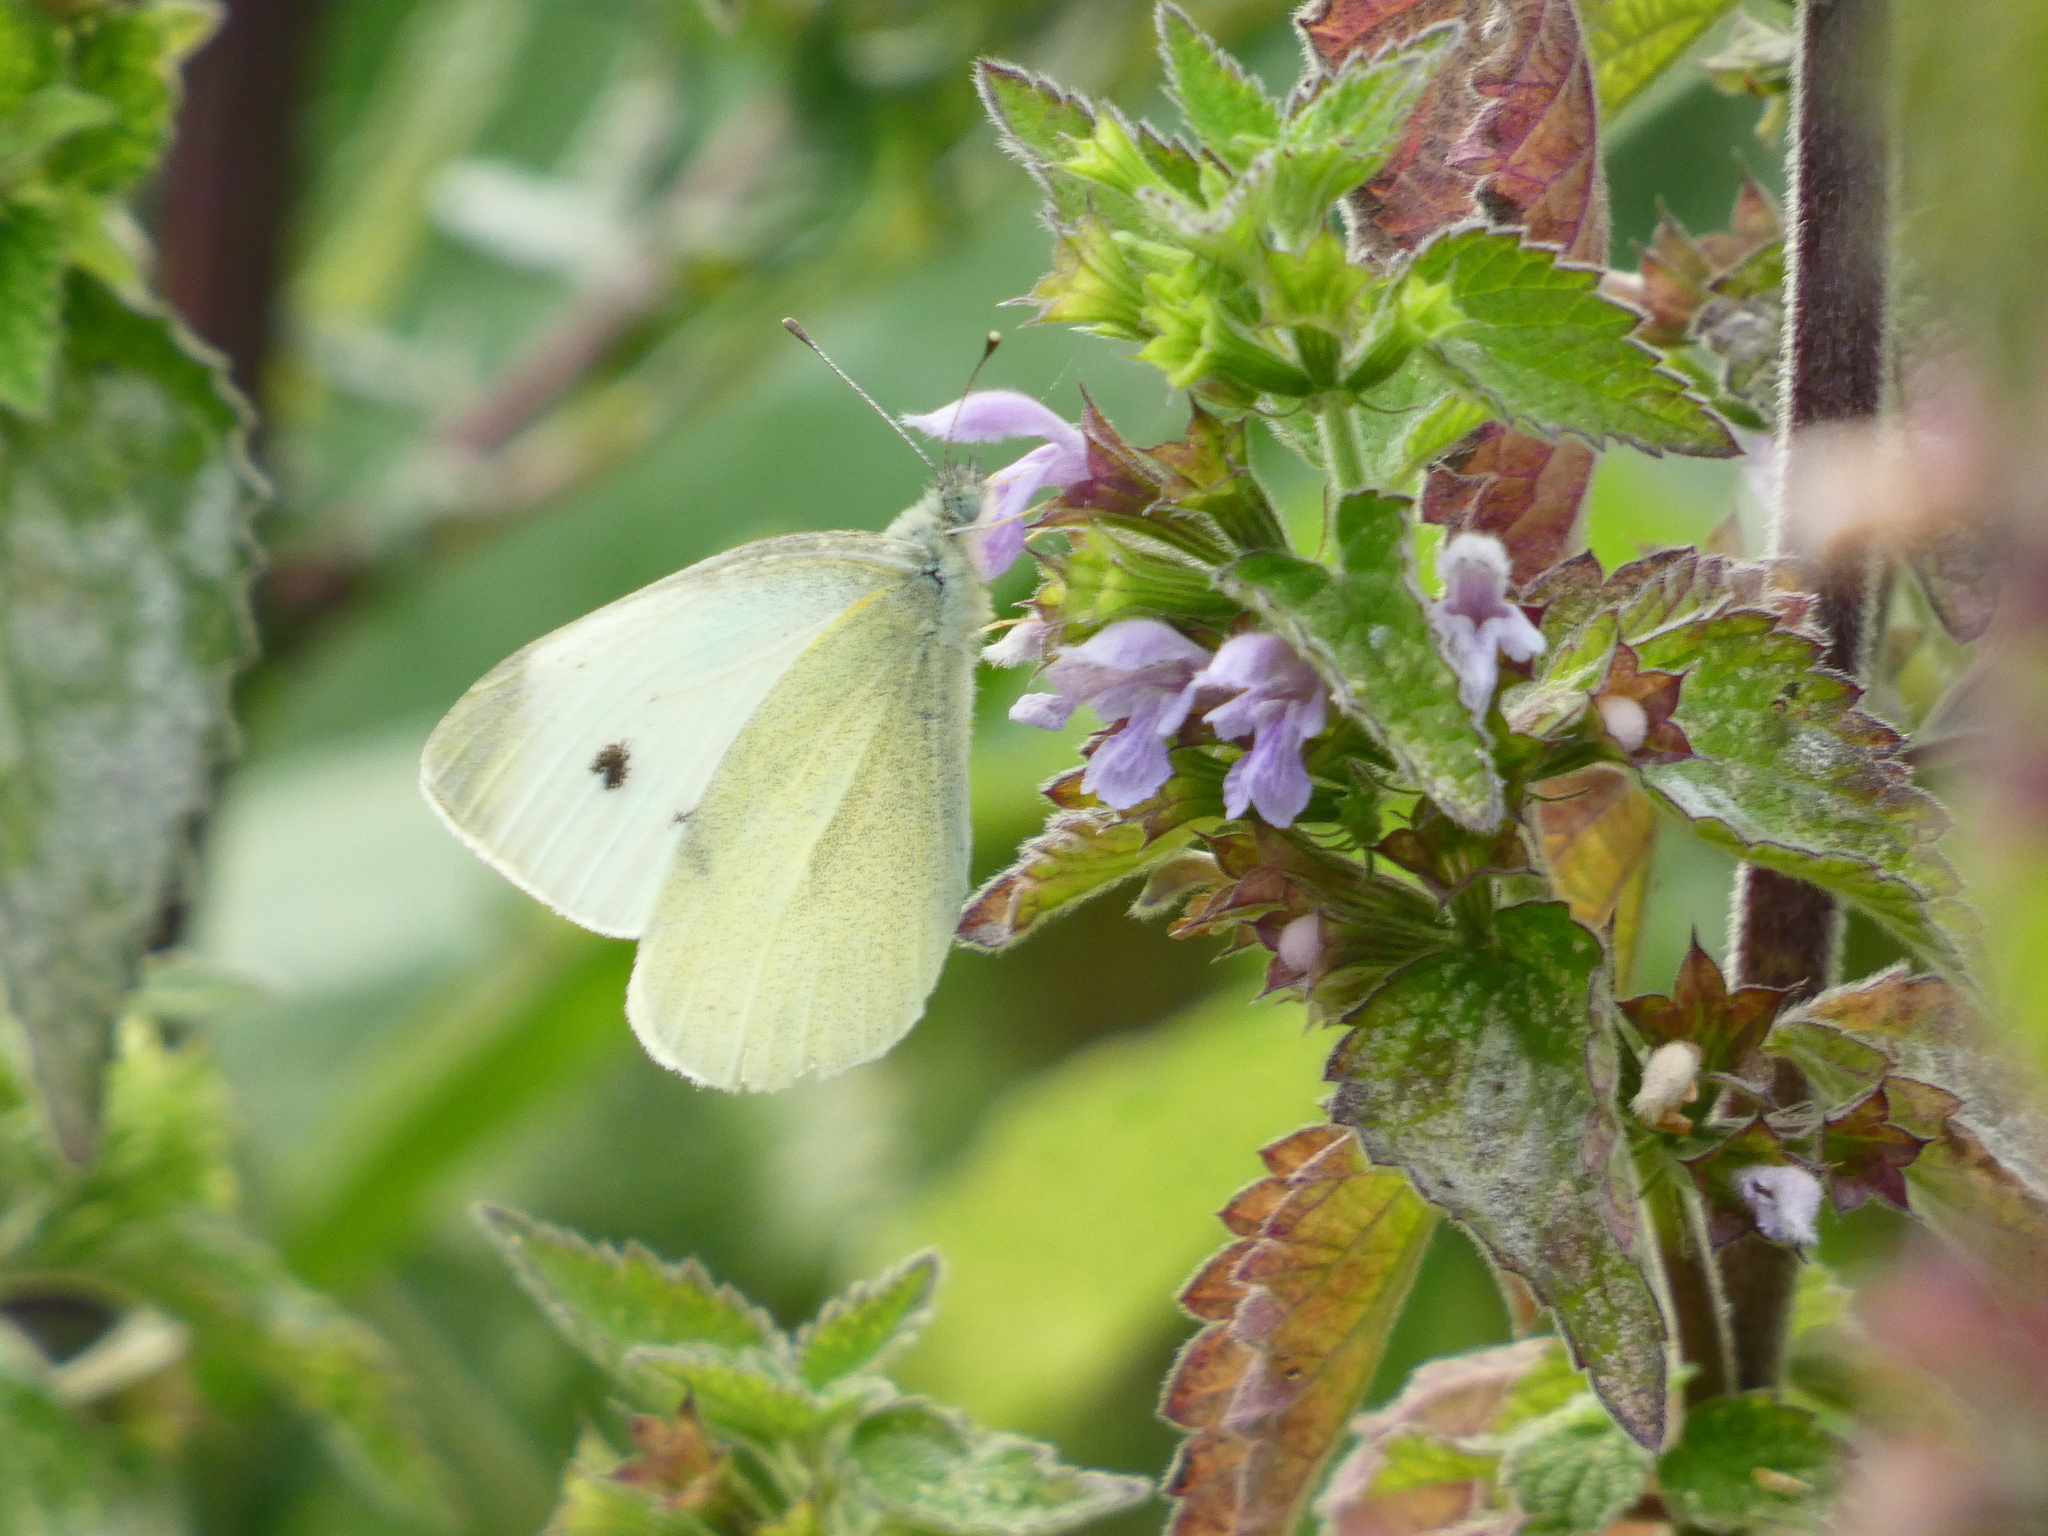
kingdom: Animalia
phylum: Arthropoda
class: Insecta
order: Lepidoptera
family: Pieridae
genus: Pieris
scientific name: Pieris rapae
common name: Small white
